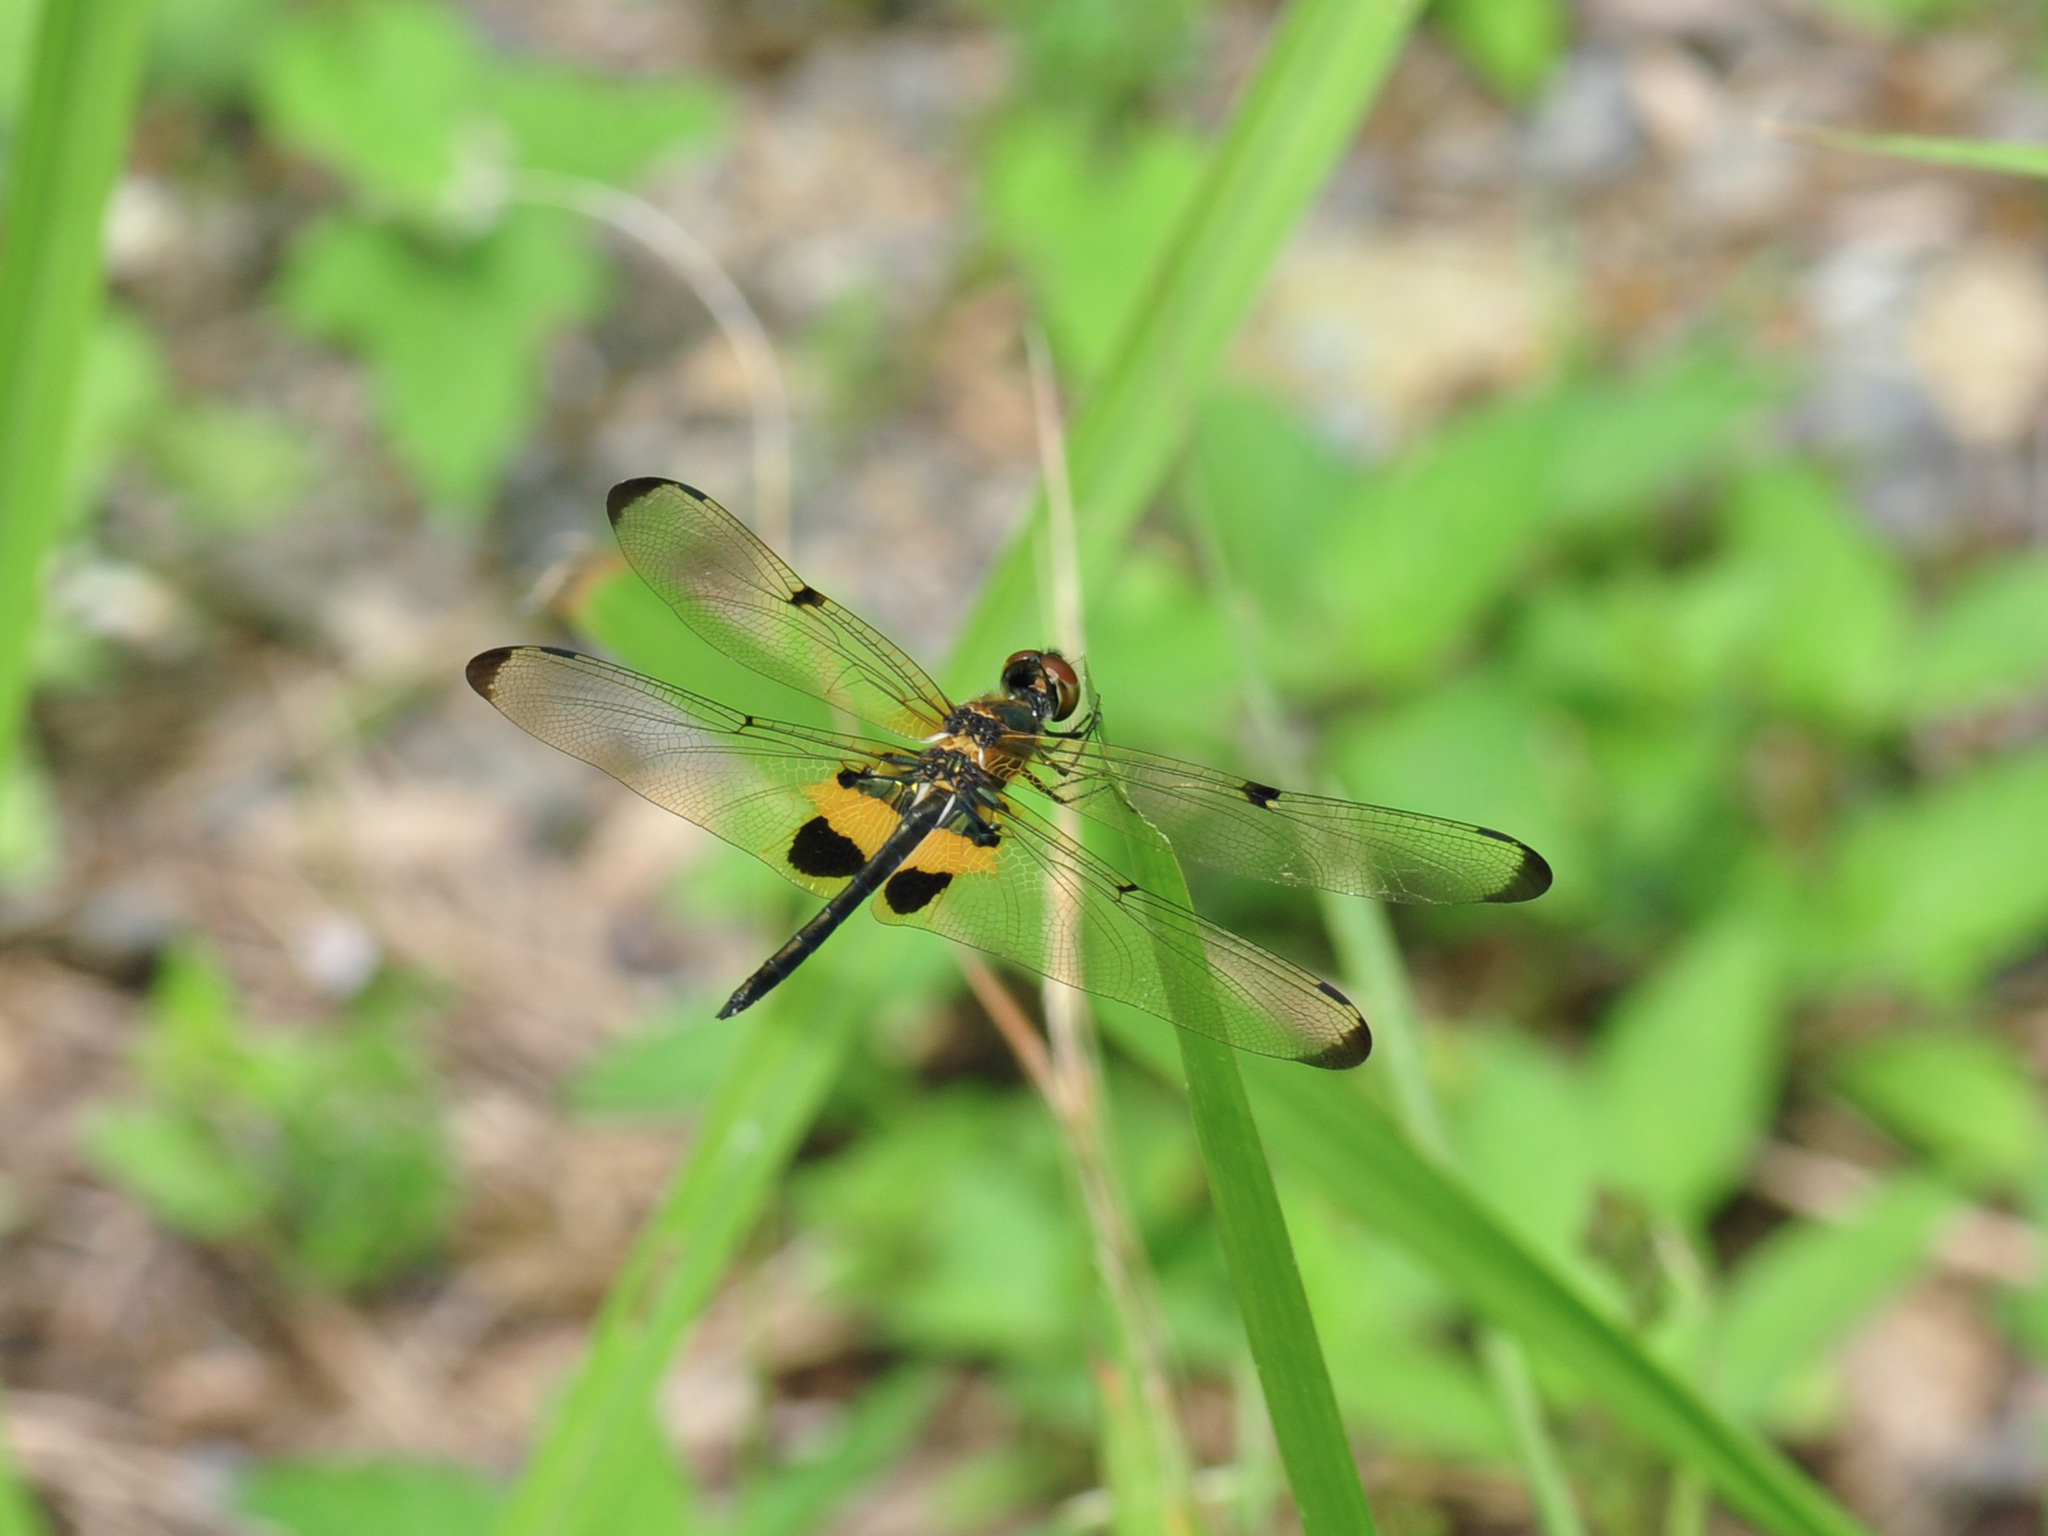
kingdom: Animalia
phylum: Arthropoda
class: Insecta
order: Odonata
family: Libellulidae
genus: Rhyothemis
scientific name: Rhyothemis phyllis
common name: Yellow-barred flutterer
